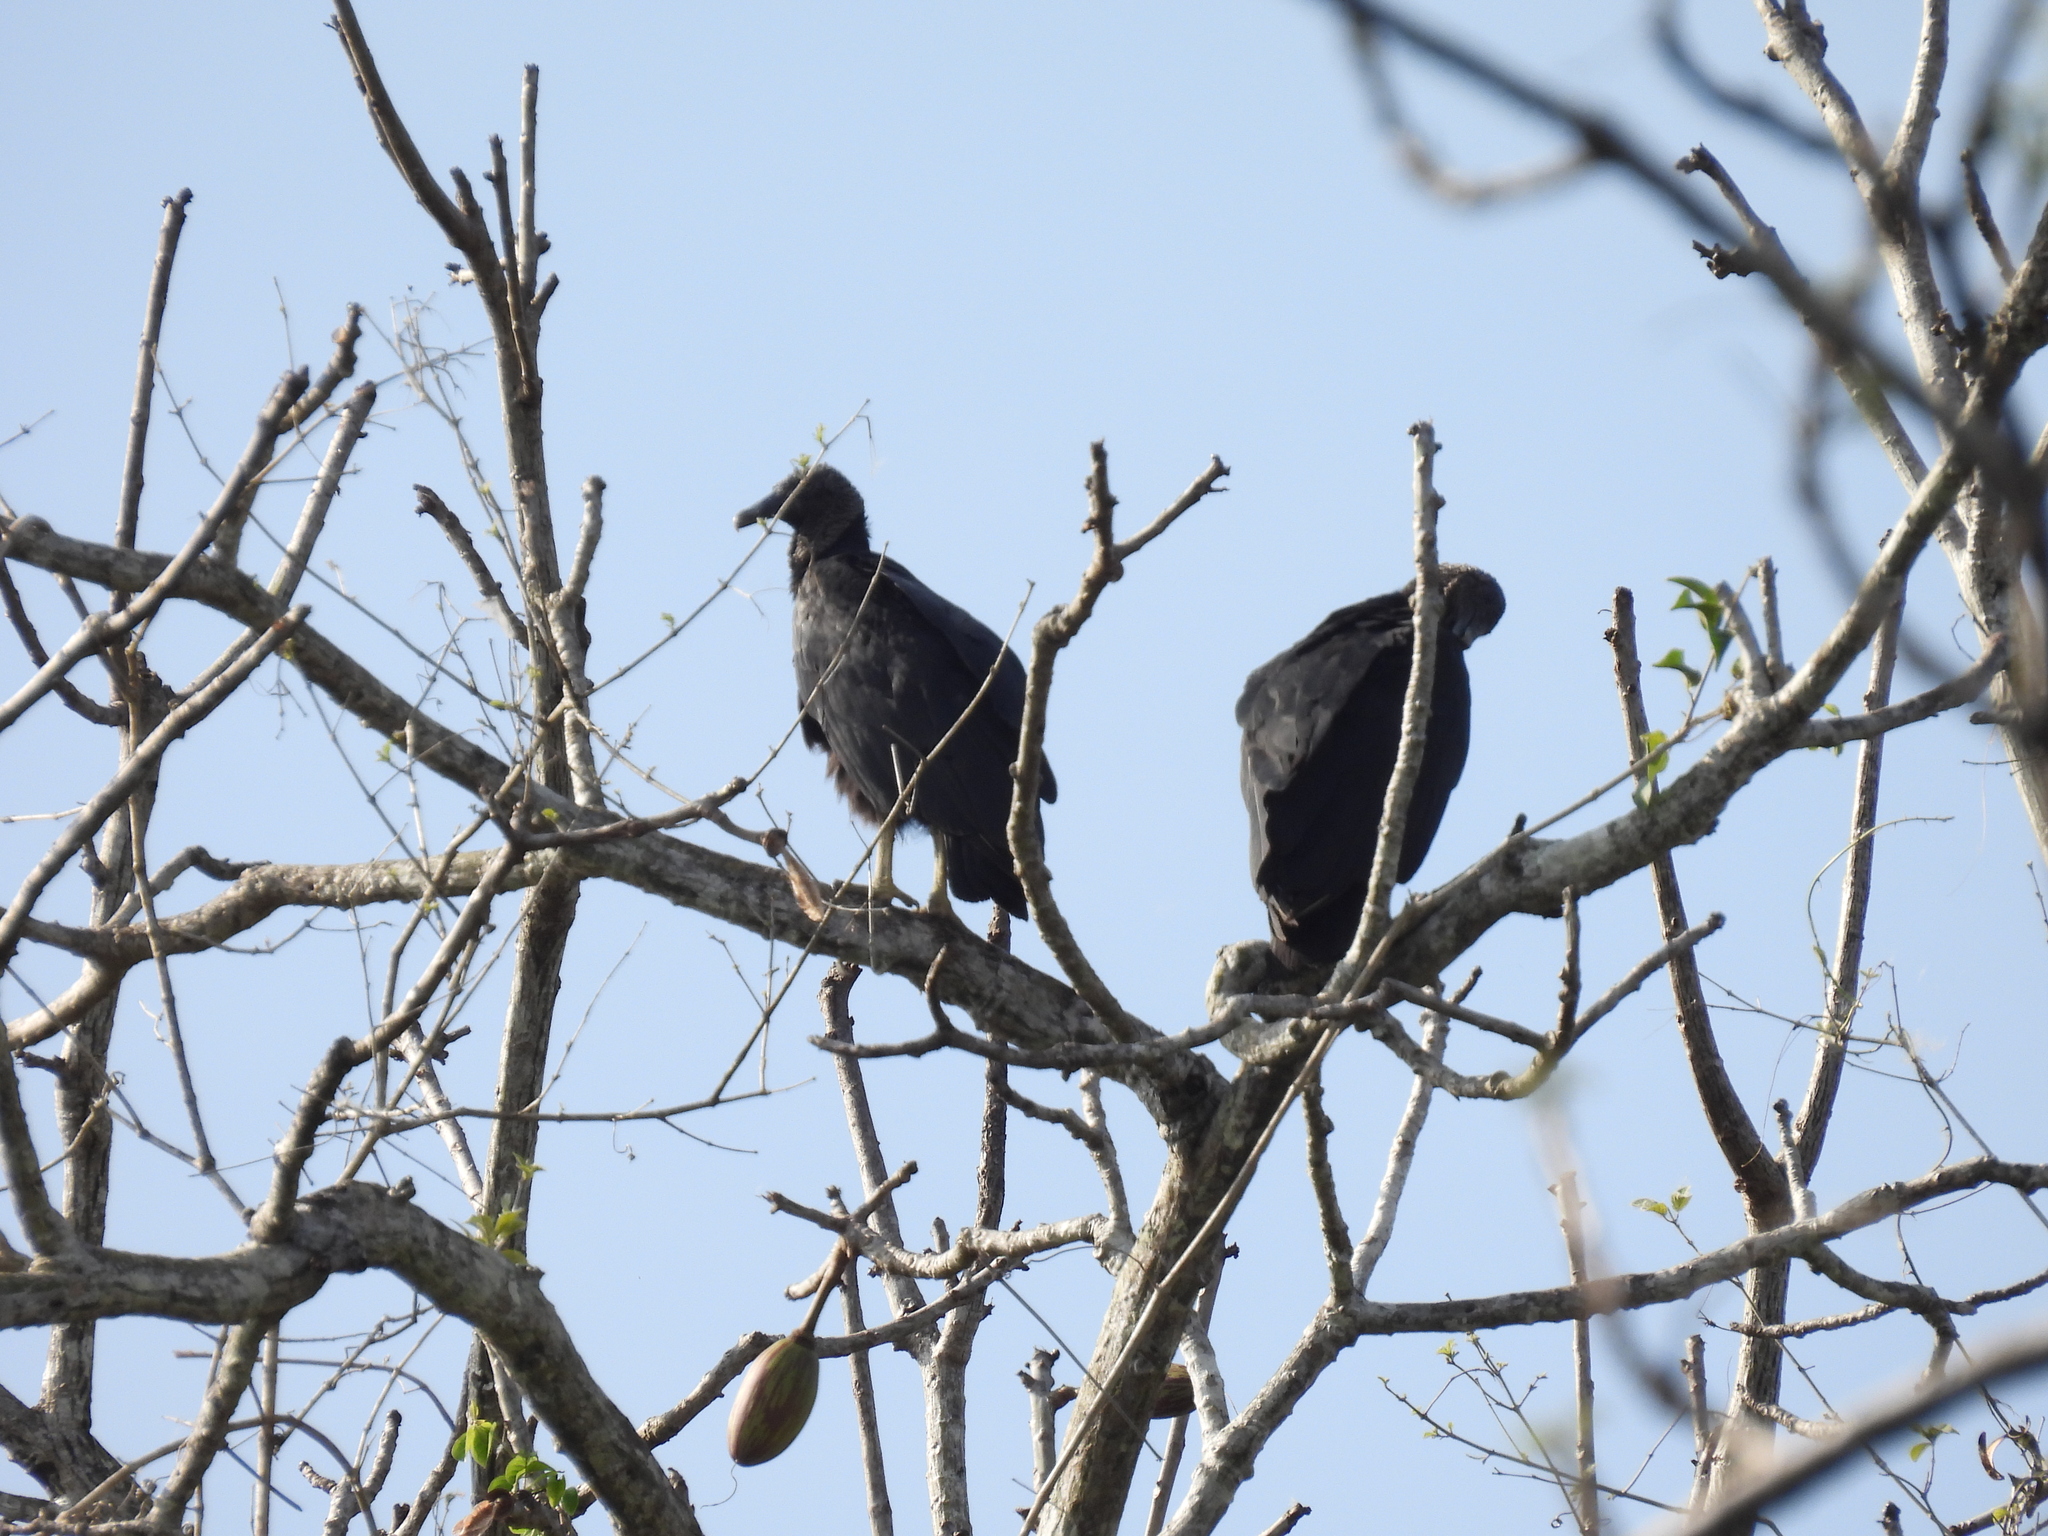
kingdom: Animalia
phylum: Chordata
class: Aves
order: Accipitriformes
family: Cathartidae
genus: Coragyps
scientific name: Coragyps atratus
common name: Black vulture
